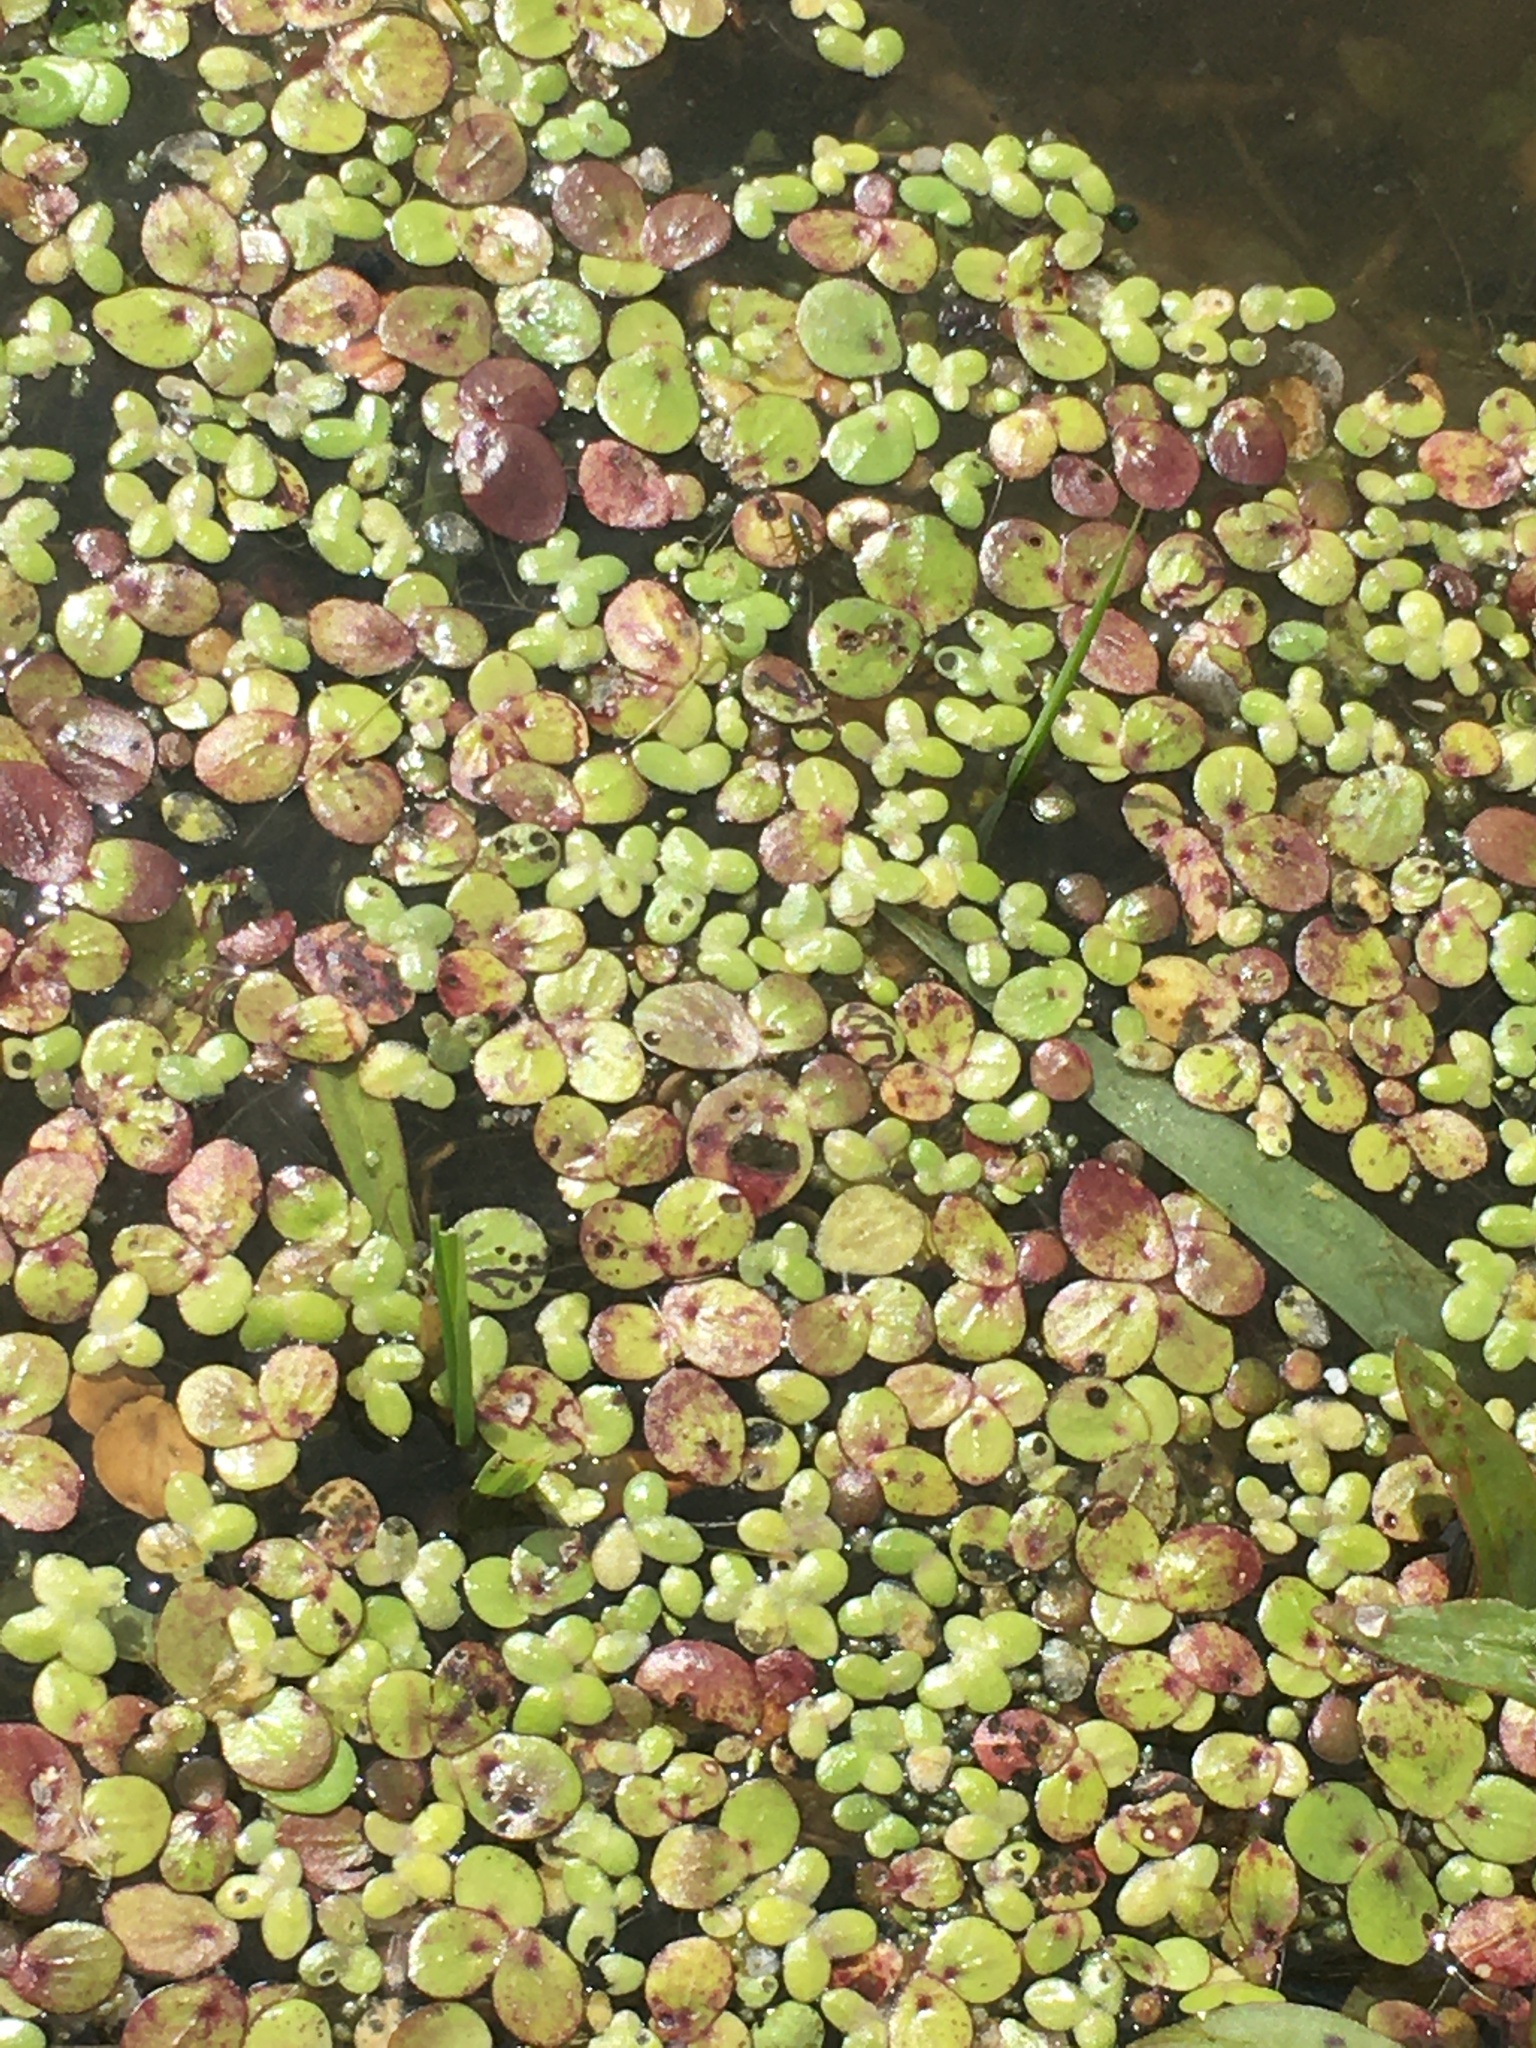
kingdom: Plantae
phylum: Tracheophyta
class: Liliopsida
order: Alismatales
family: Araceae
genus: Spirodela
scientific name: Spirodela polyrhiza
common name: Great duckweed
